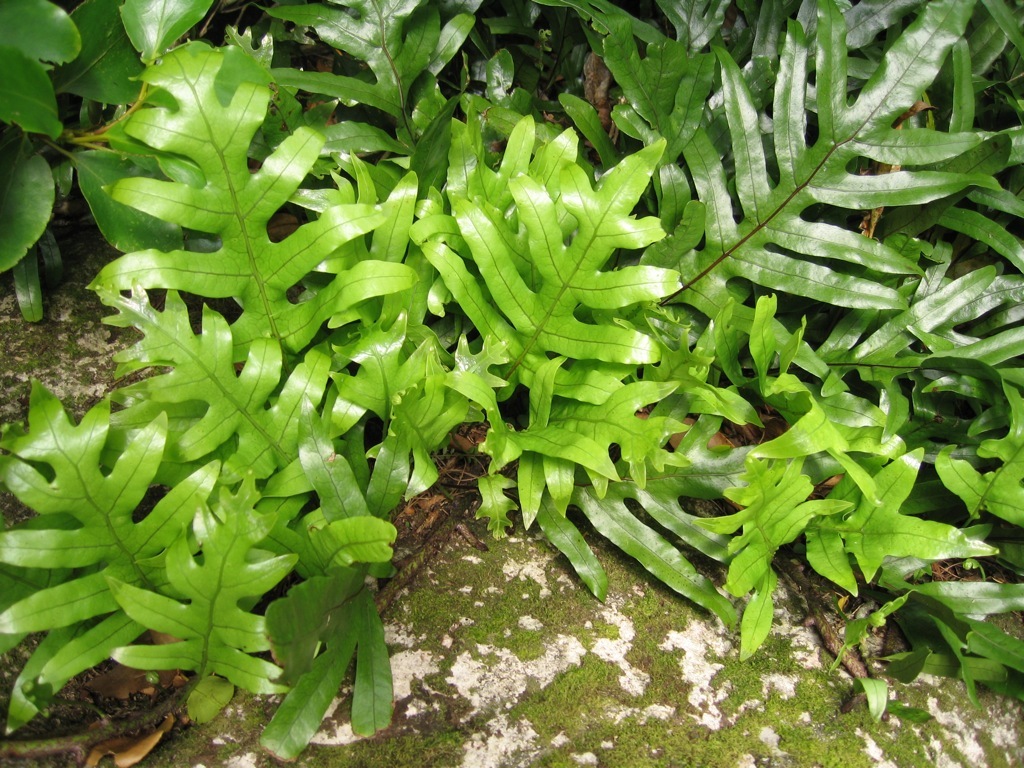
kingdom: Plantae
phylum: Tracheophyta
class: Polypodiopsida
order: Polypodiales
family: Polypodiaceae
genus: Lecanopteris
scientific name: Lecanopteris pustulata
